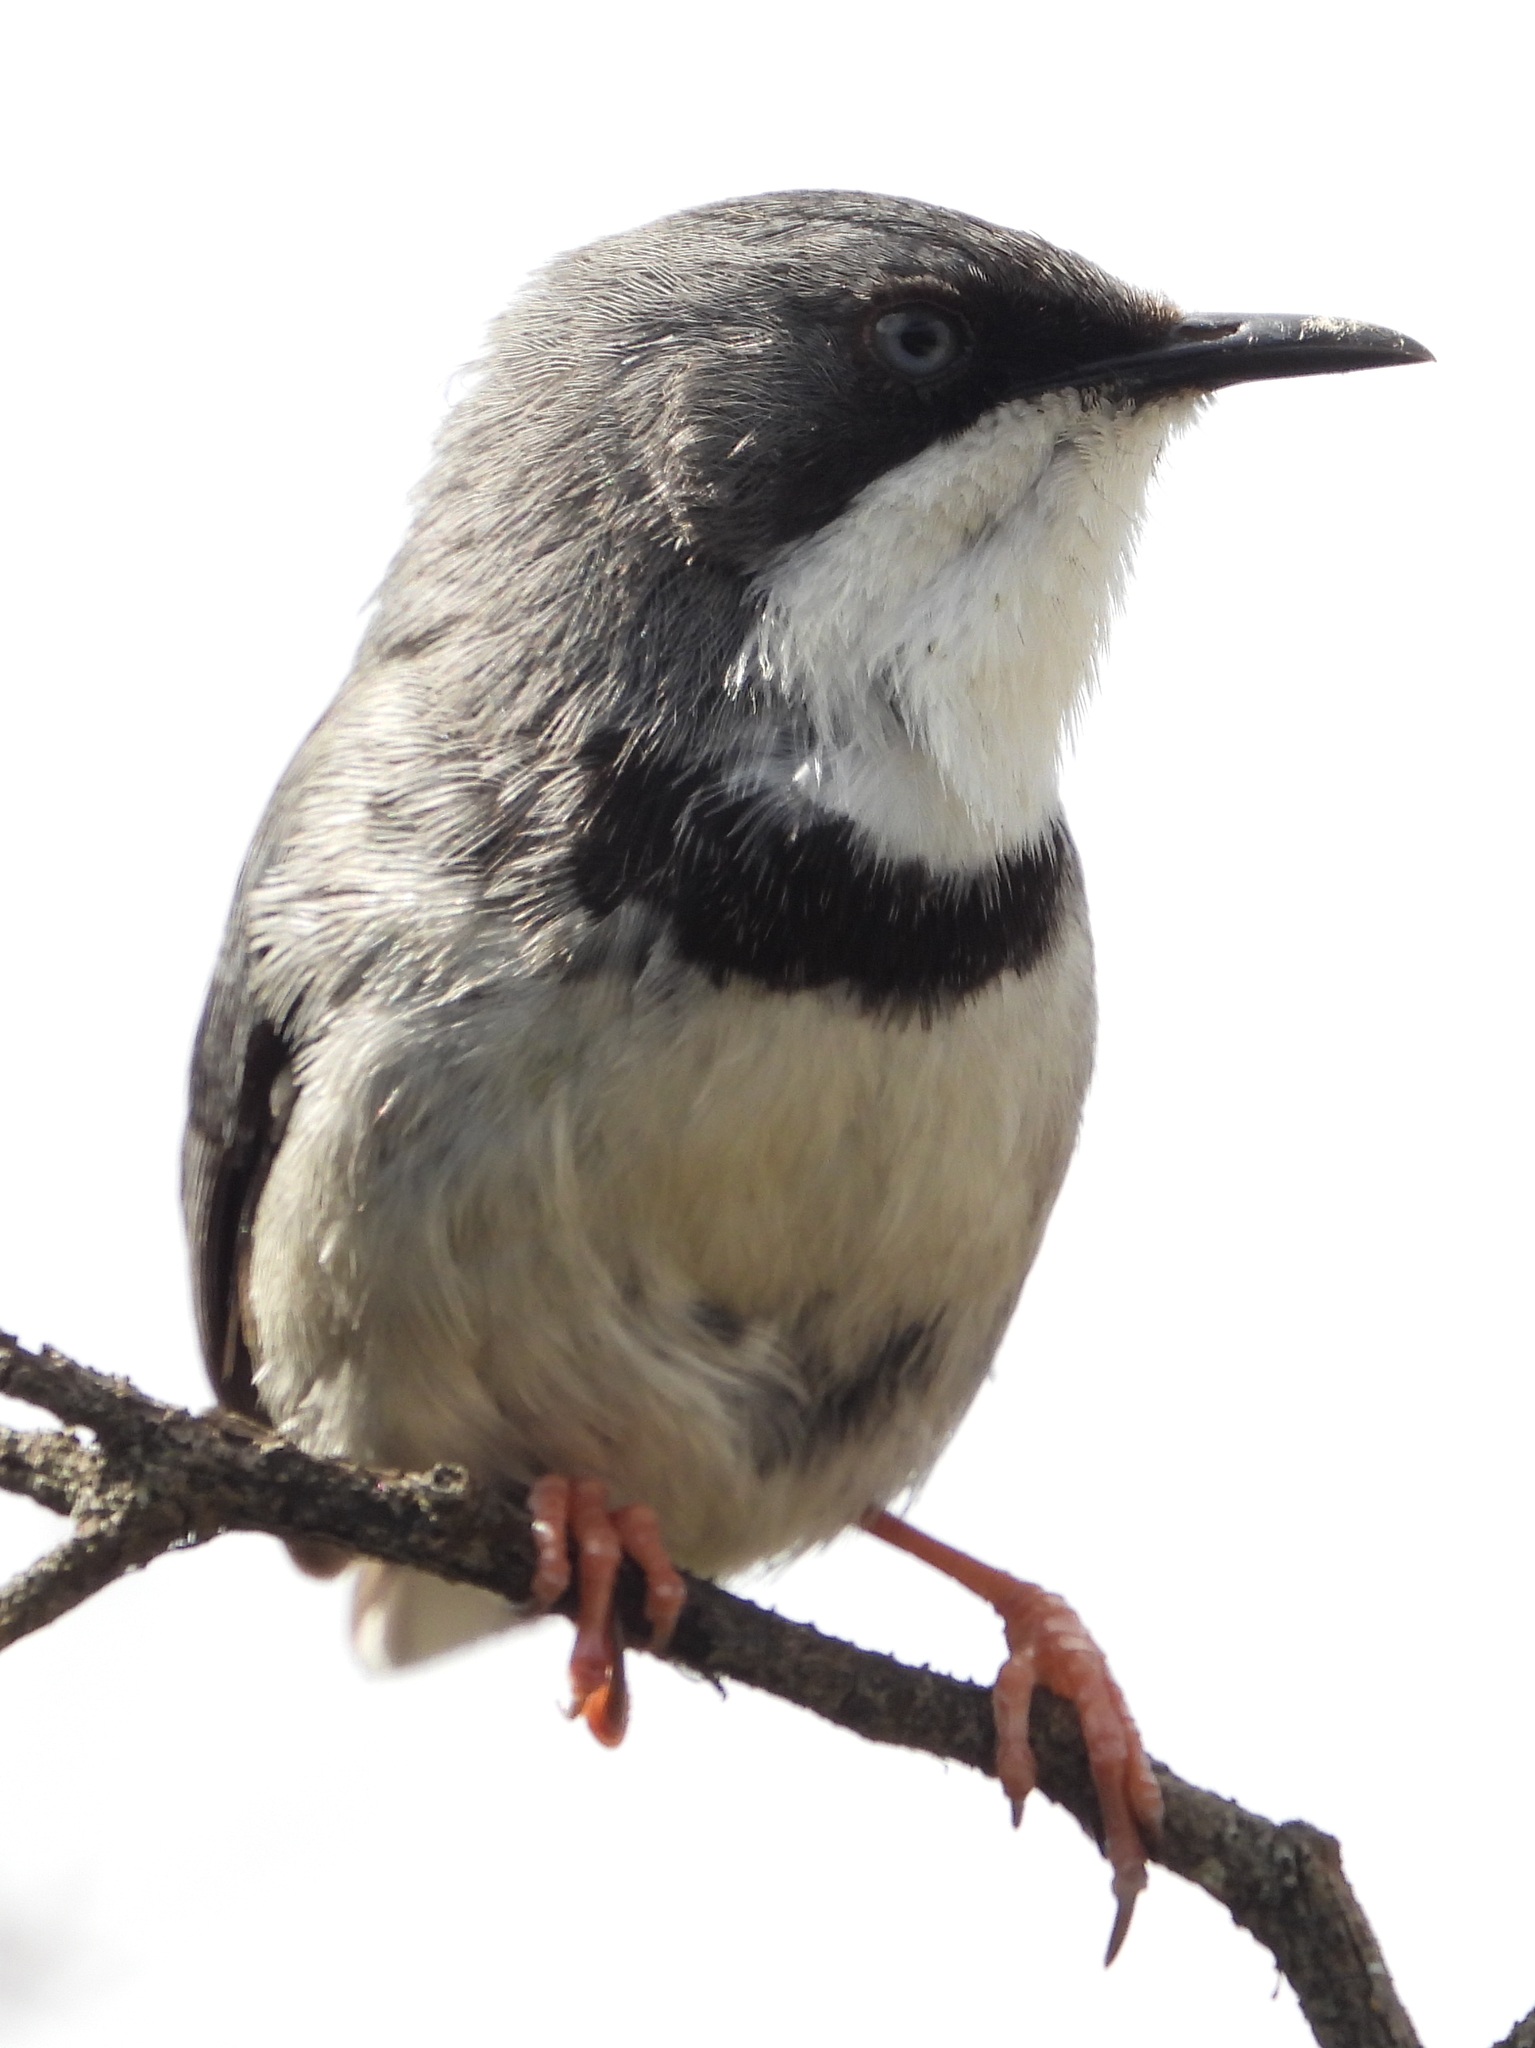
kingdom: Animalia
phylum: Chordata
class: Aves
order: Passeriformes
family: Cisticolidae
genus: Apalis
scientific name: Apalis thoracica
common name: Bar-throated apalis
